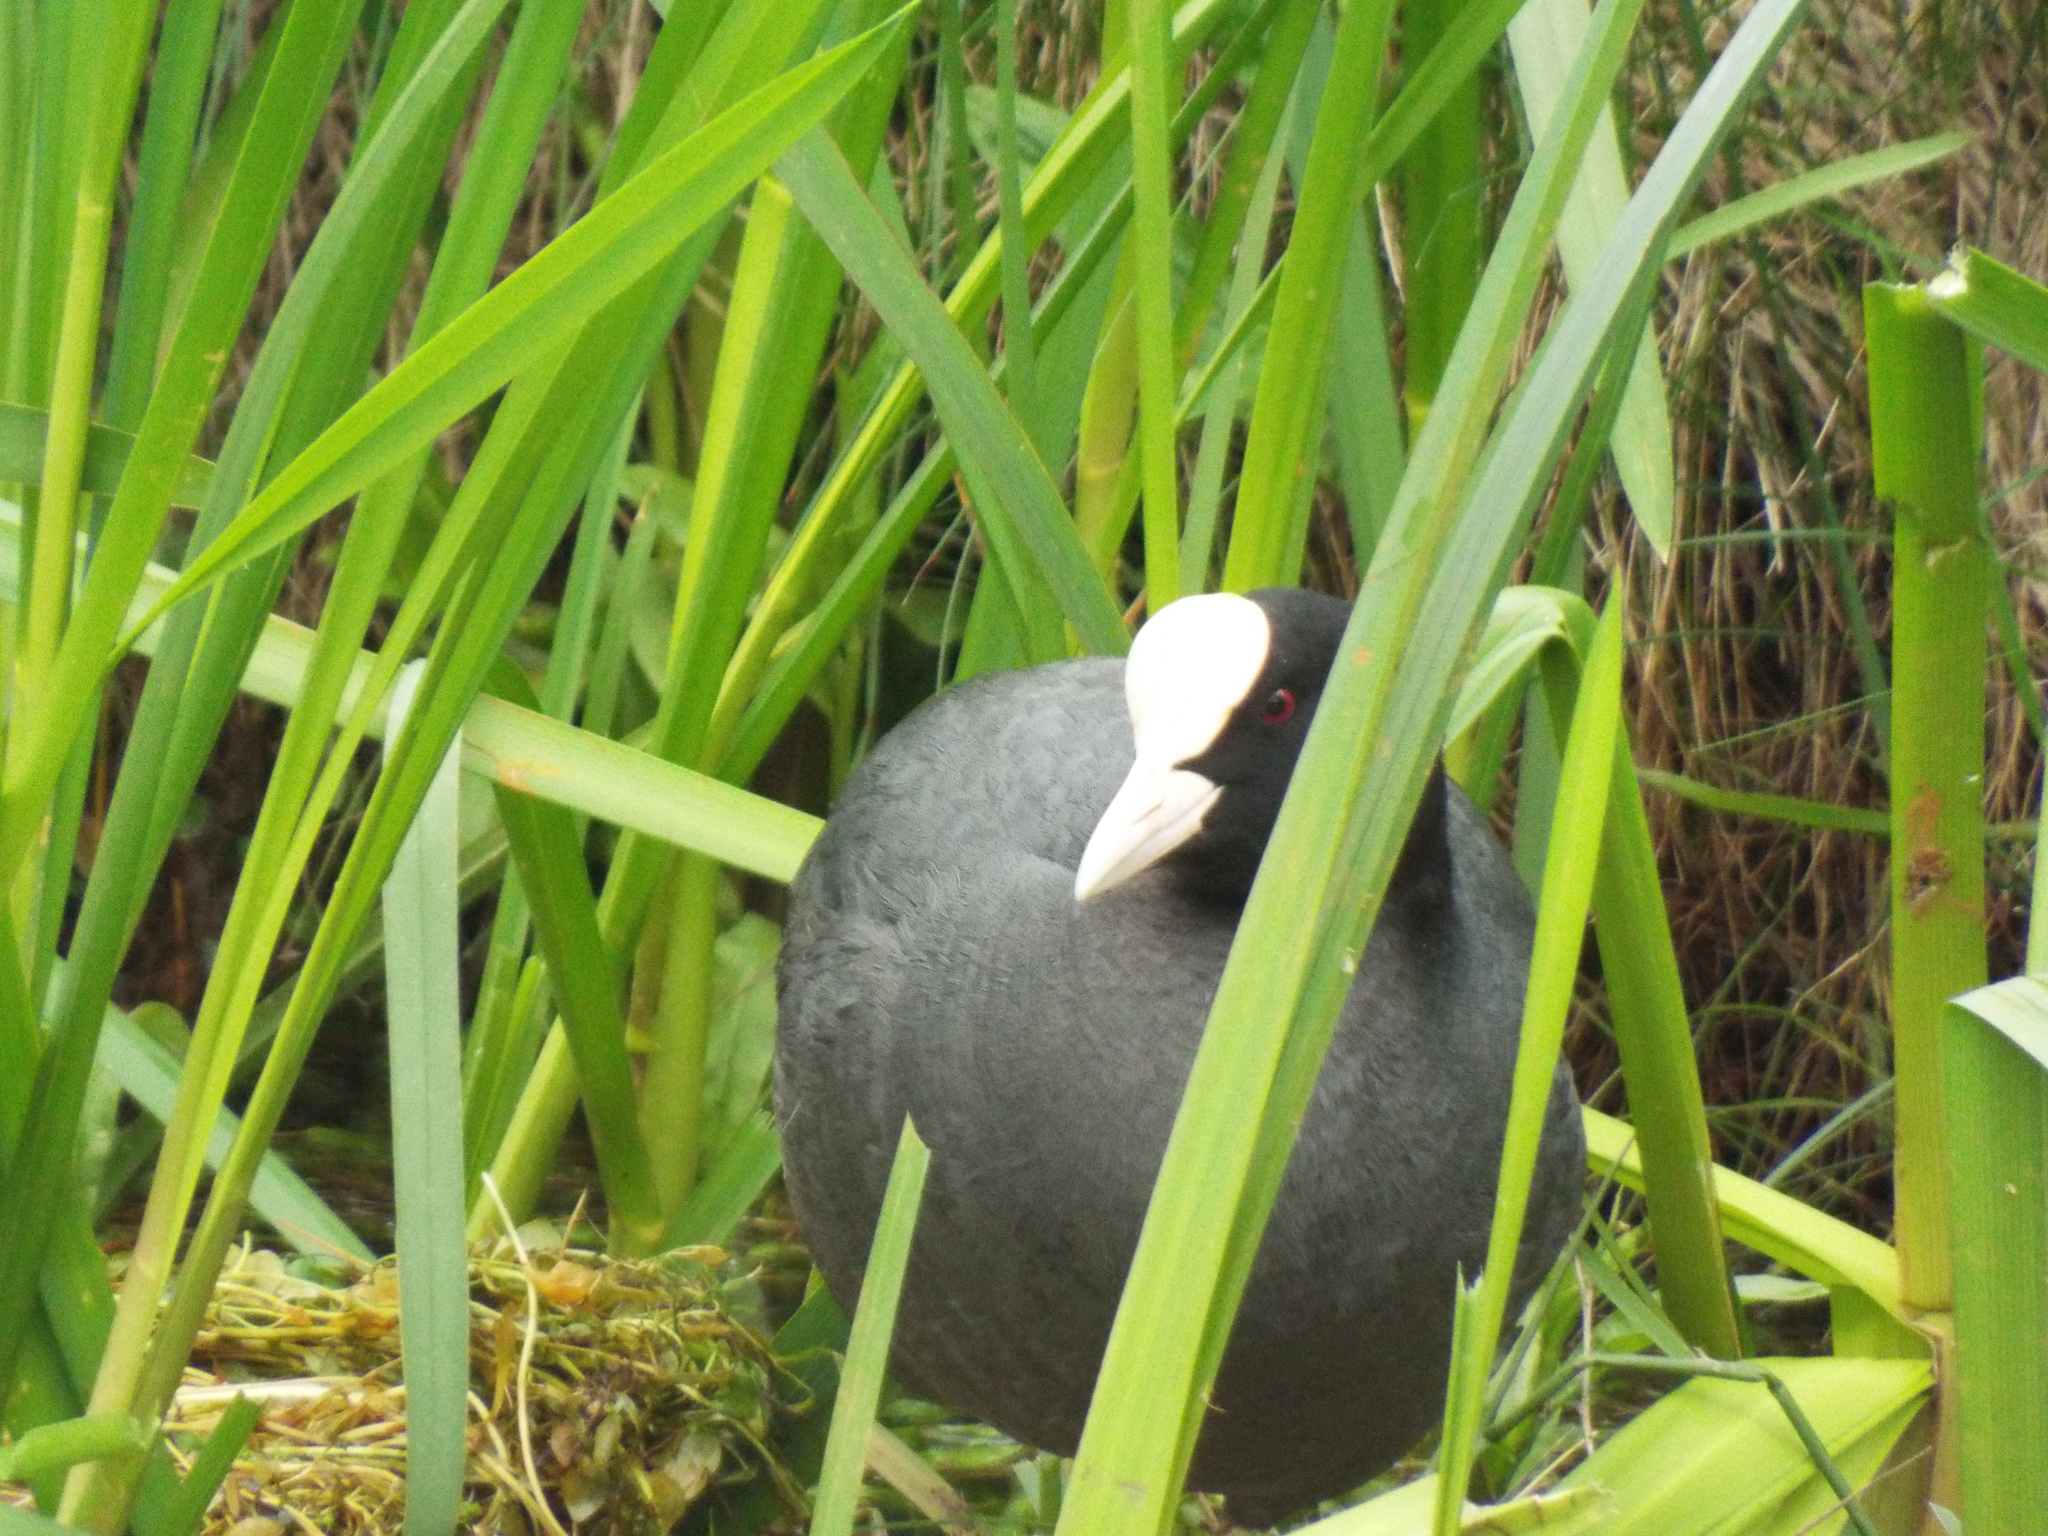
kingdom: Animalia
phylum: Chordata
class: Aves
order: Gruiformes
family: Rallidae
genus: Fulica
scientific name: Fulica atra
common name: Eurasian coot
